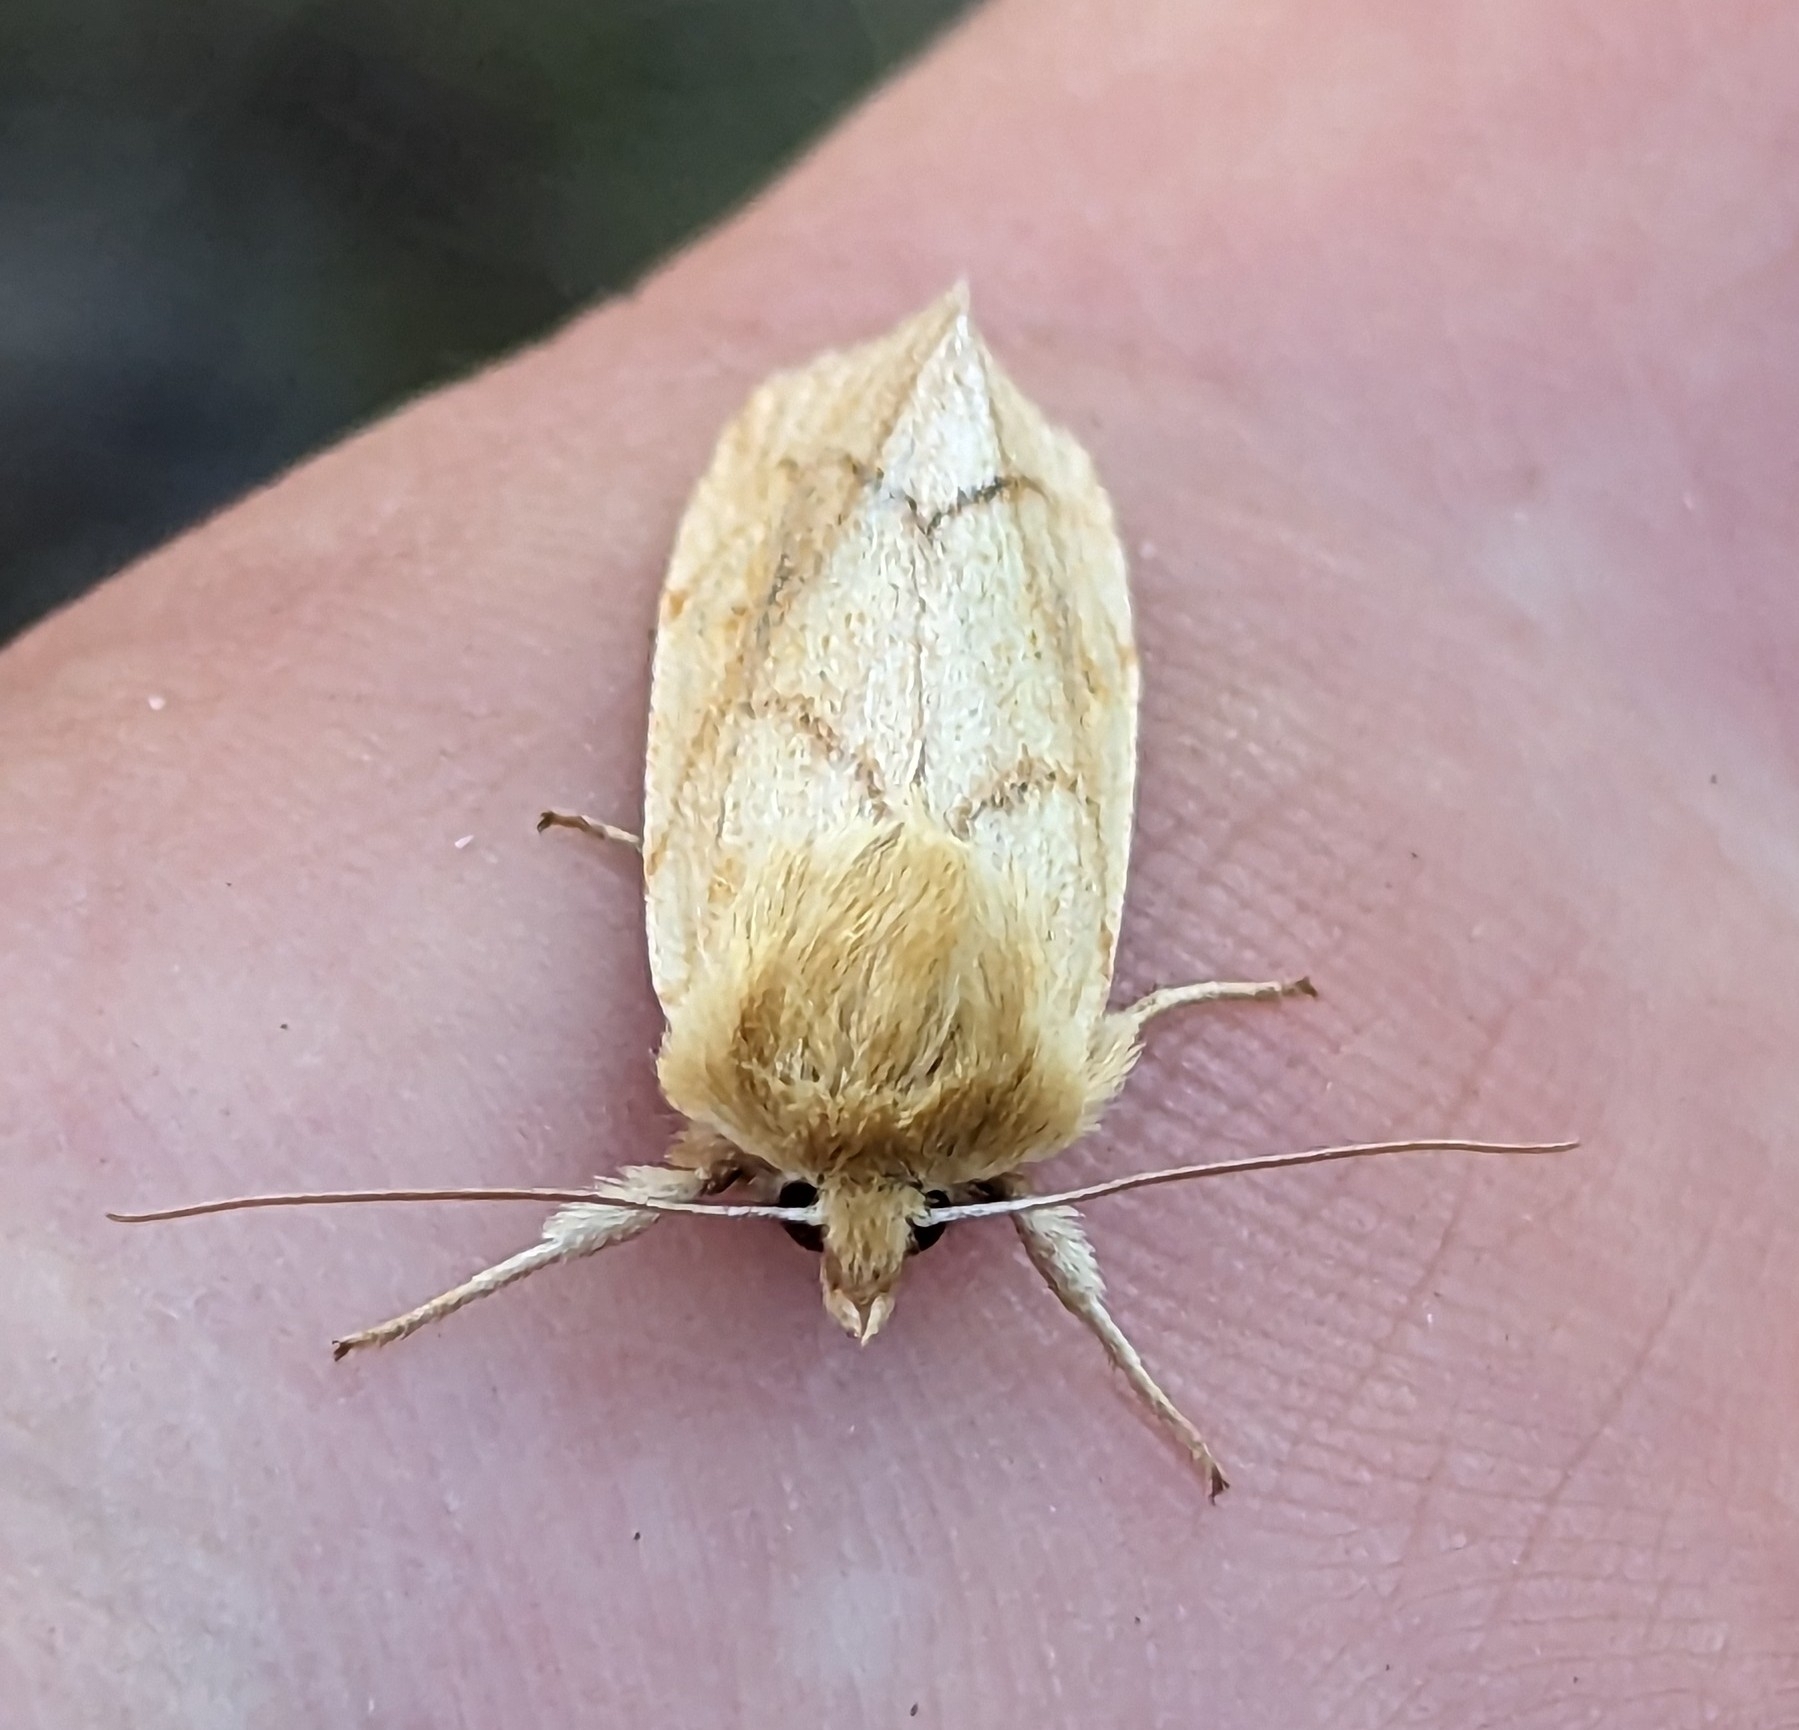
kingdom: Animalia
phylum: Arthropoda
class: Insecta
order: Lepidoptera
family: Noctuidae
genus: Zosteropoda
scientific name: Zosteropoda hirtipes
